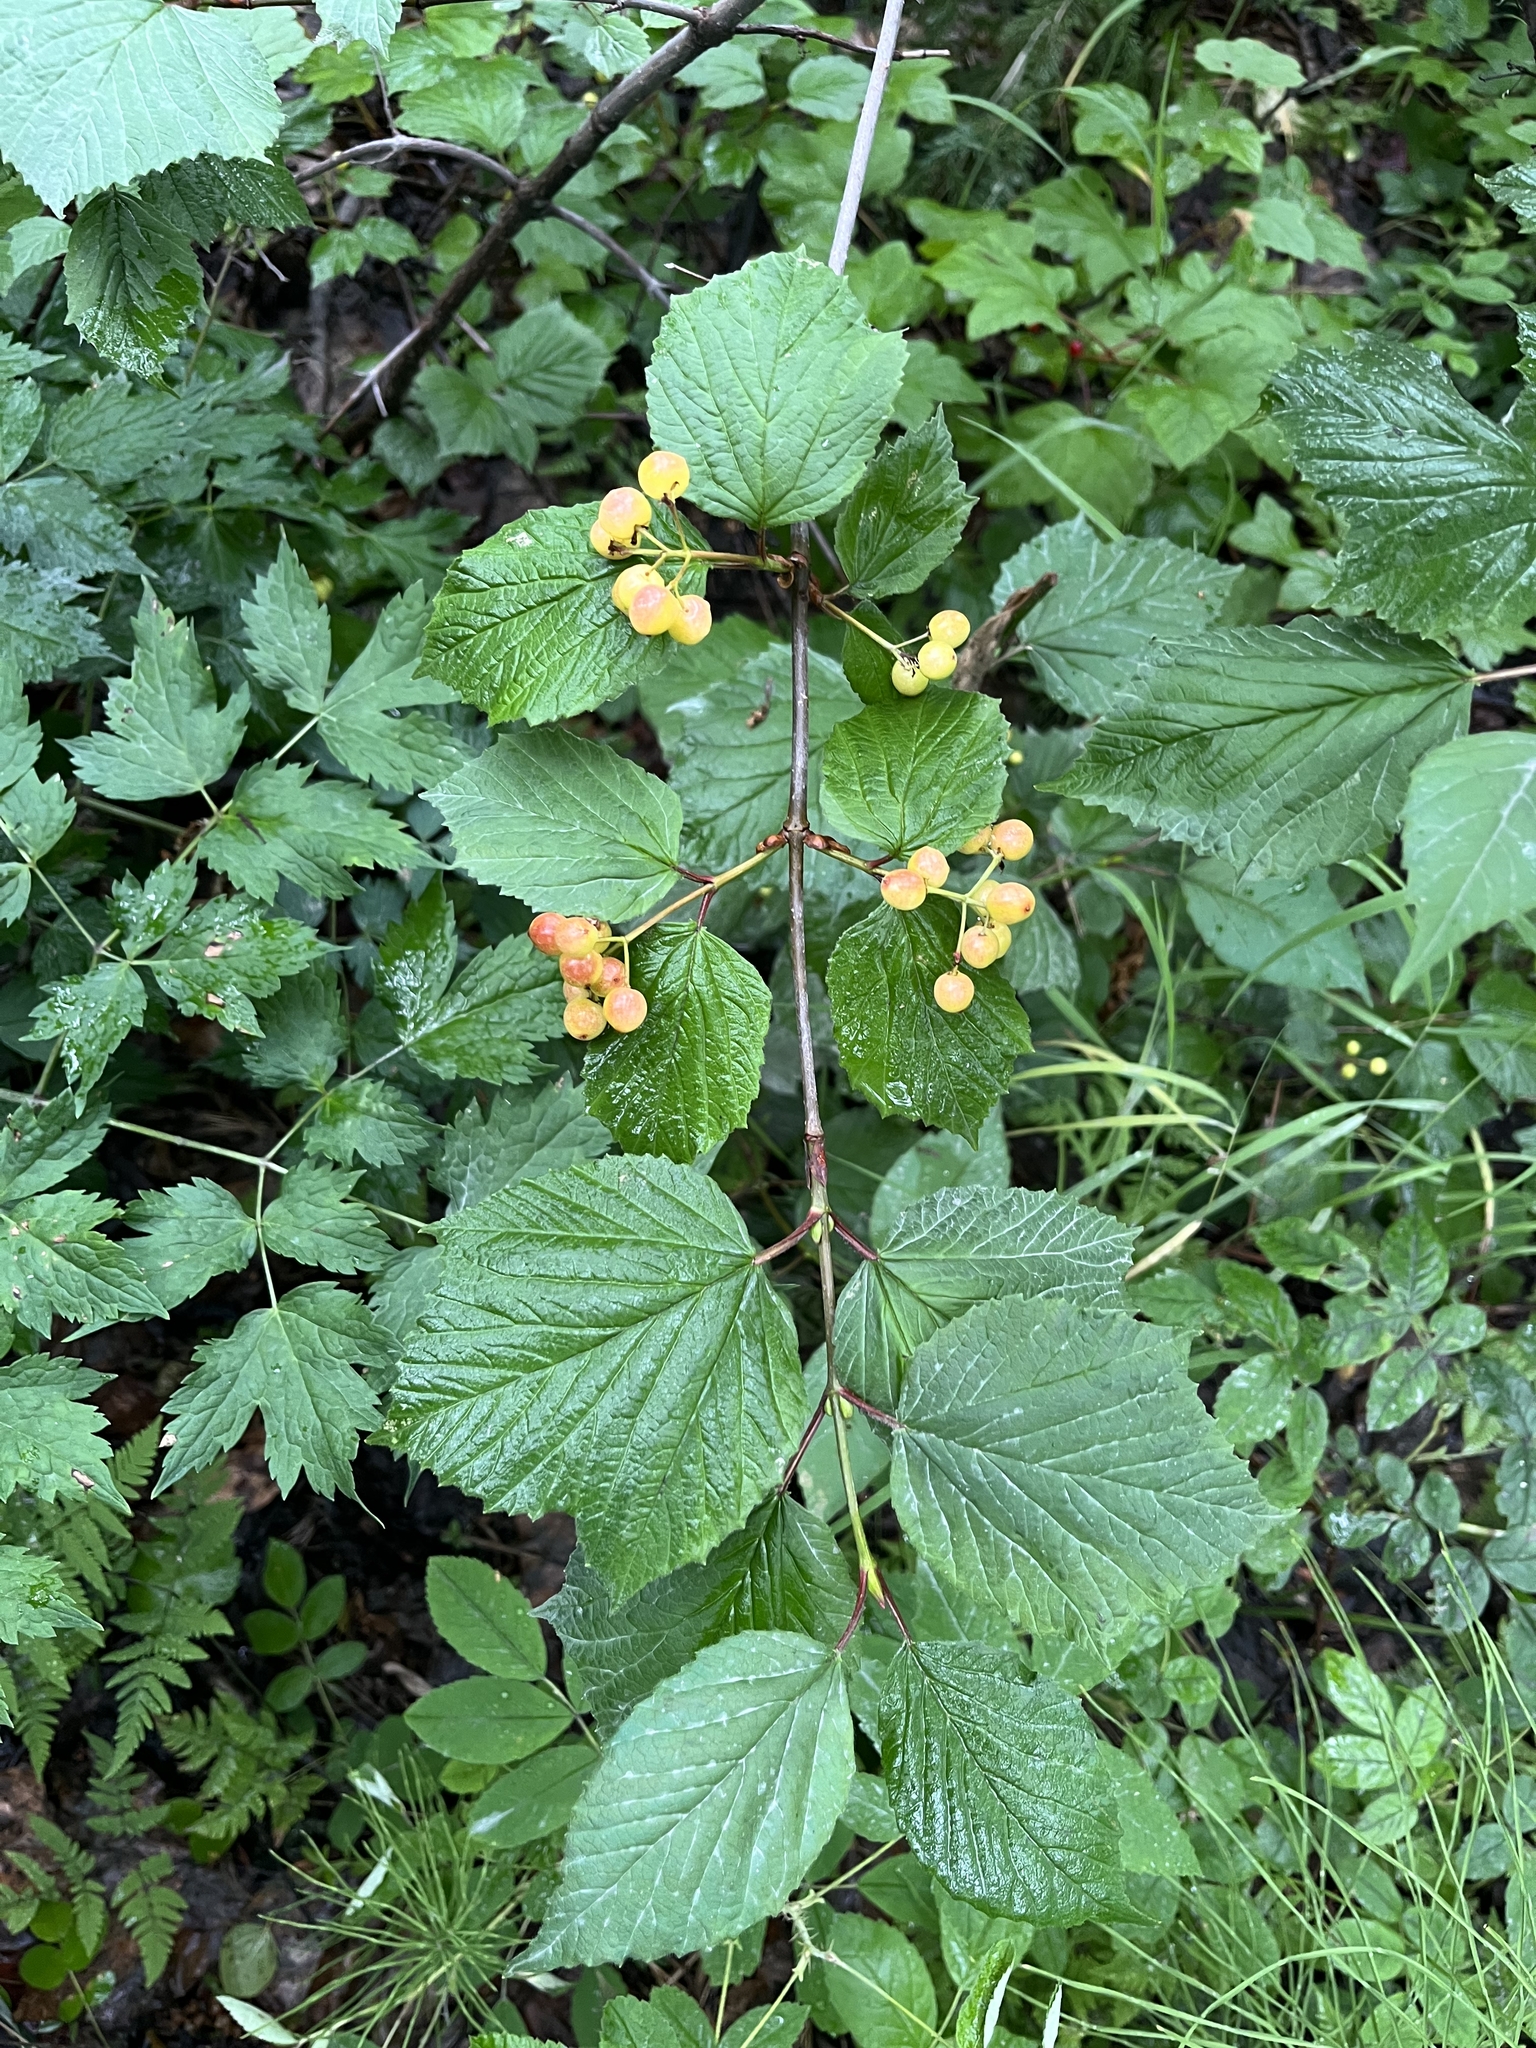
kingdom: Plantae
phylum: Tracheophyta
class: Magnoliopsida
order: Dipsacales
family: Viburnaceae
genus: Viburnum
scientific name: Viburnum edule
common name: Mooseberry
